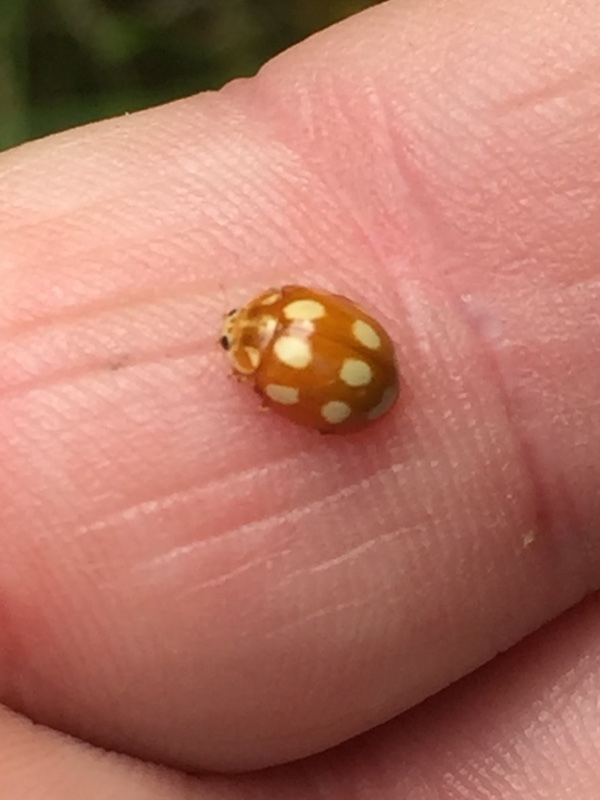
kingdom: Animalia
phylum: Arthropoda
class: Insecta
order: Coleoptera
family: Coccinellidae
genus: Calvia
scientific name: Calvia decemguttata
